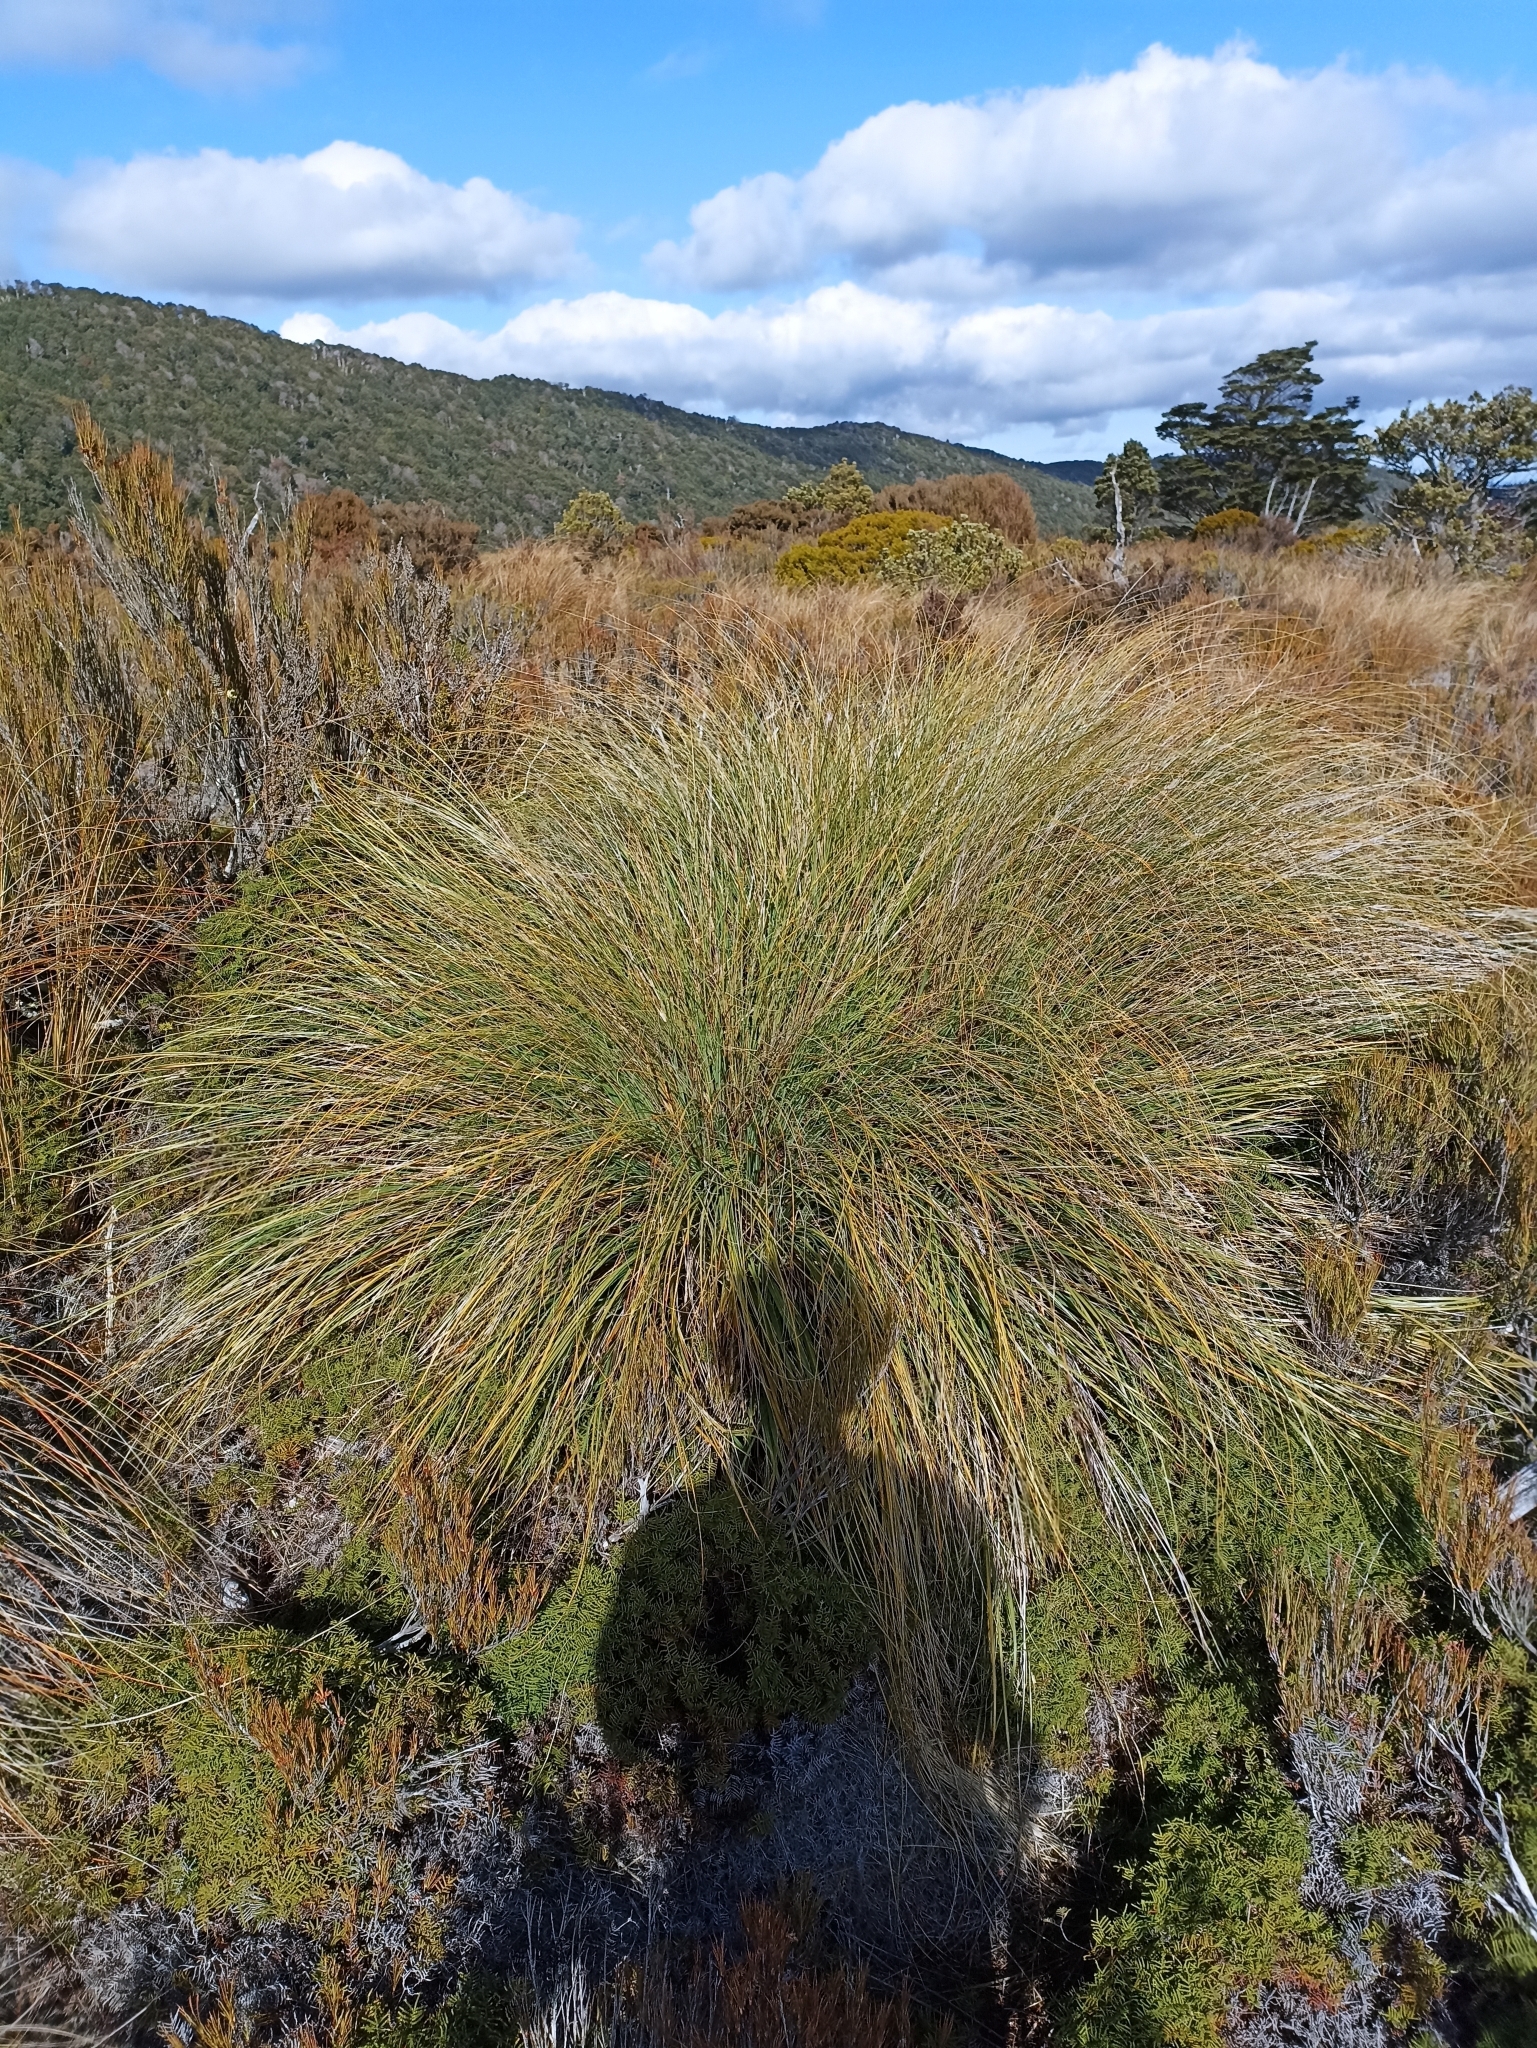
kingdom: Plantae
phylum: Tracheophyta
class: Liliopsida
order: Poales
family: Poaceae
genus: Chionochloa
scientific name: Chionochloa rubra
